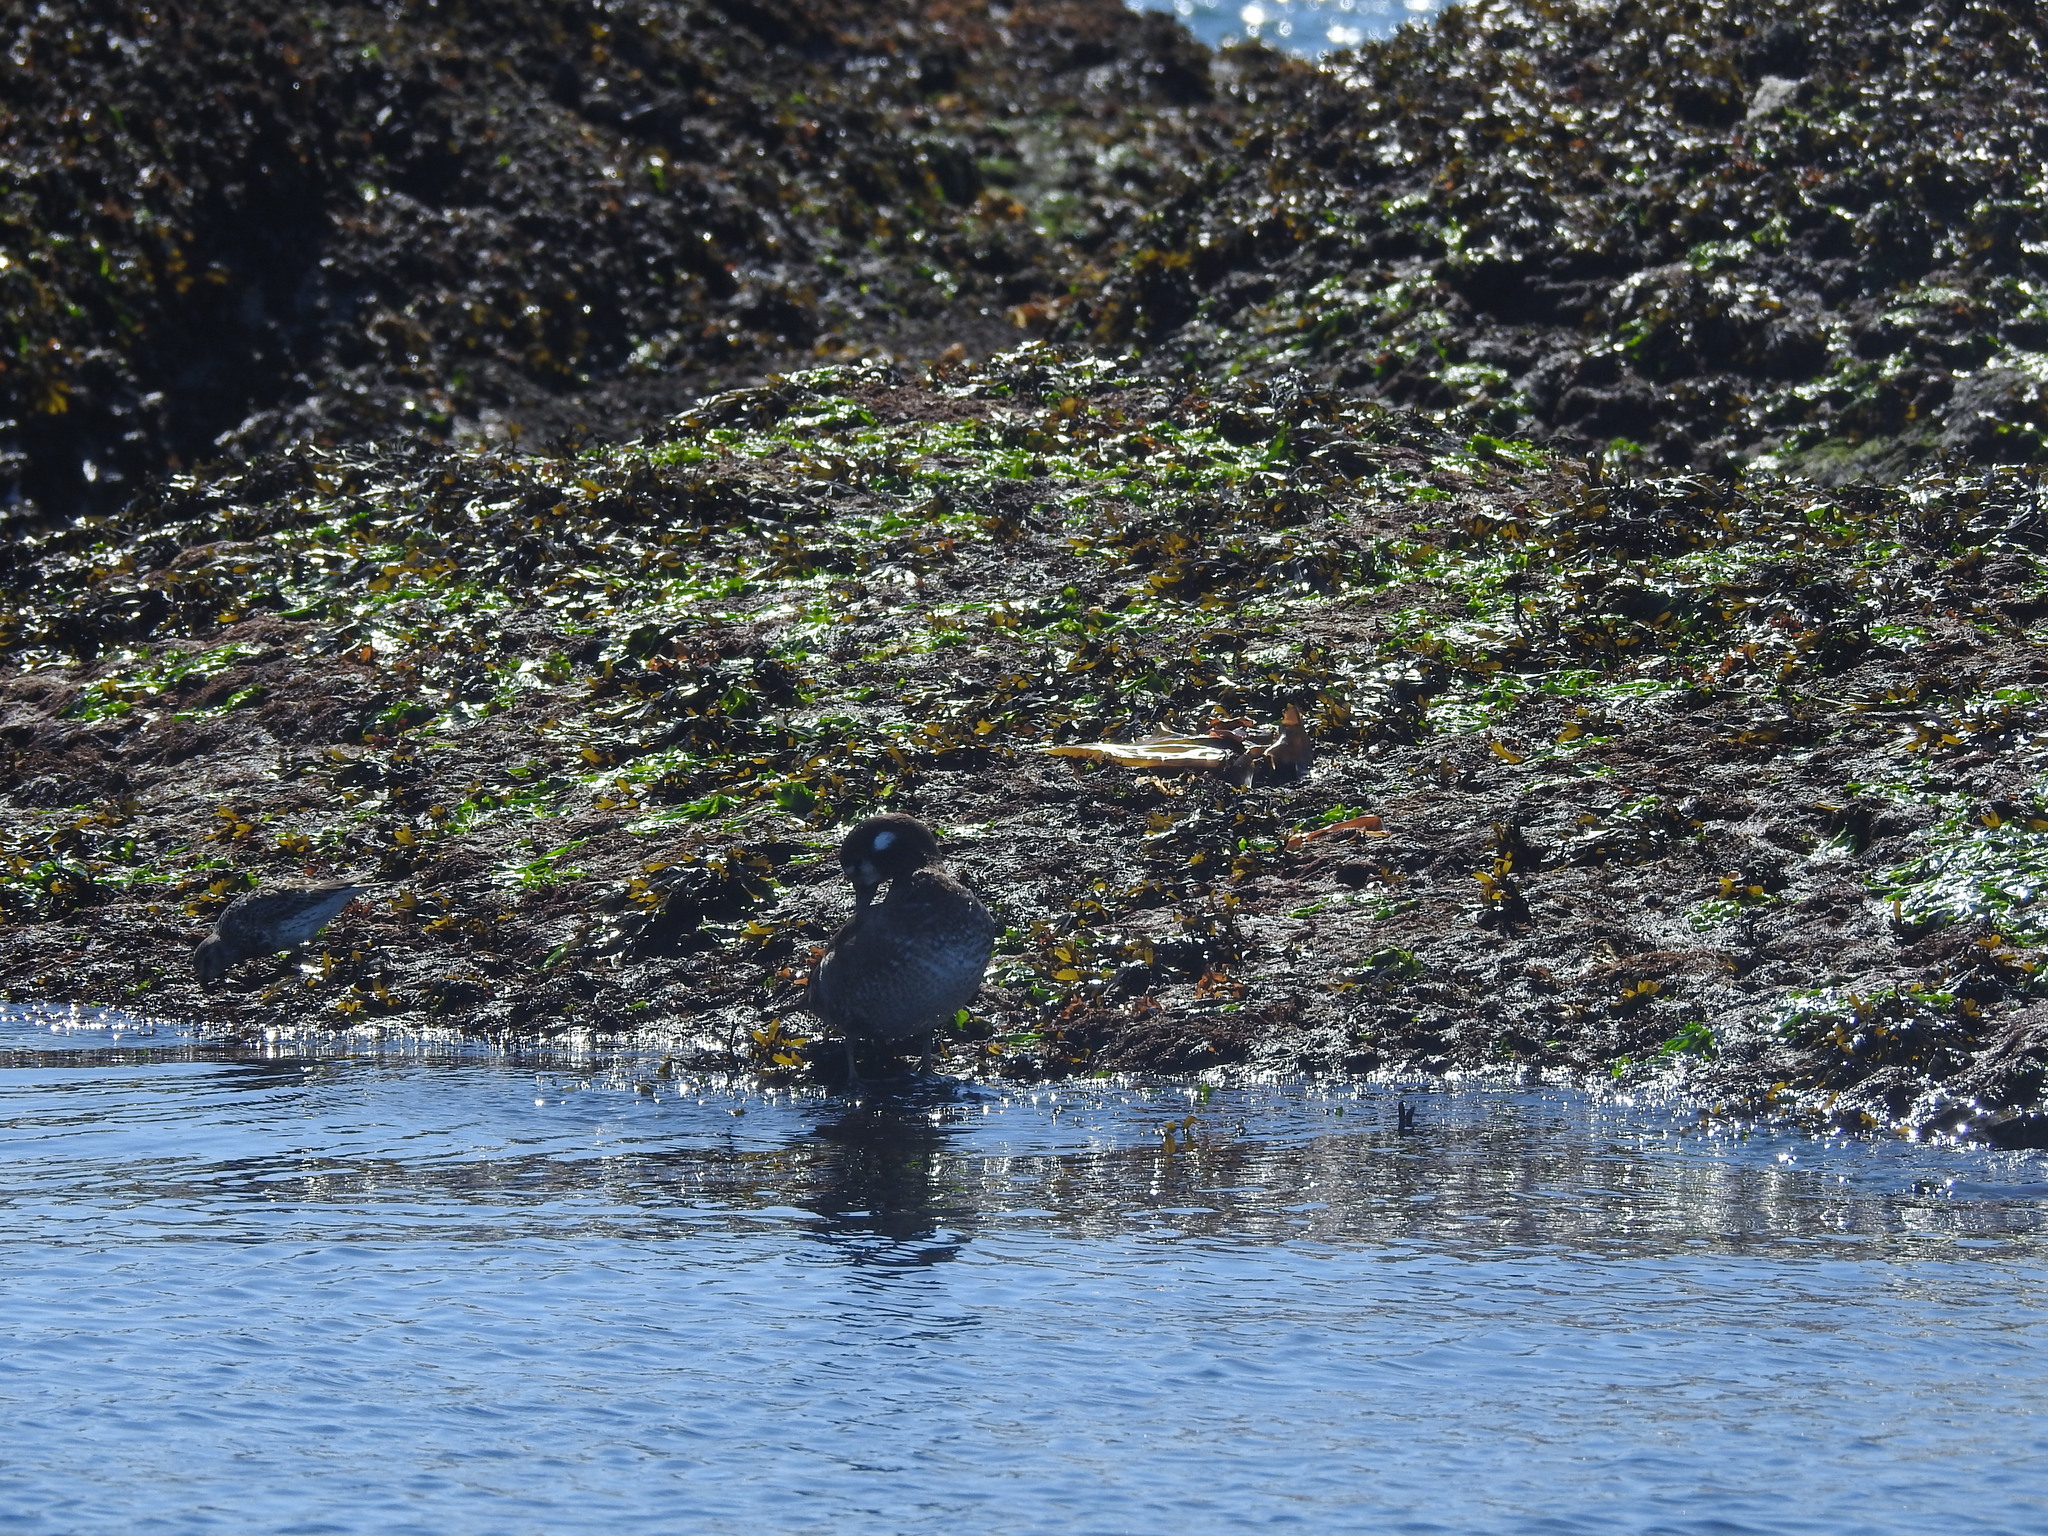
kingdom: Animalia
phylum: Chordata
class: Aves
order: Anseriformes
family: Anatidae
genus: Histrionicus
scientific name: Histrionicus histrionicus
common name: Harlequin duck
